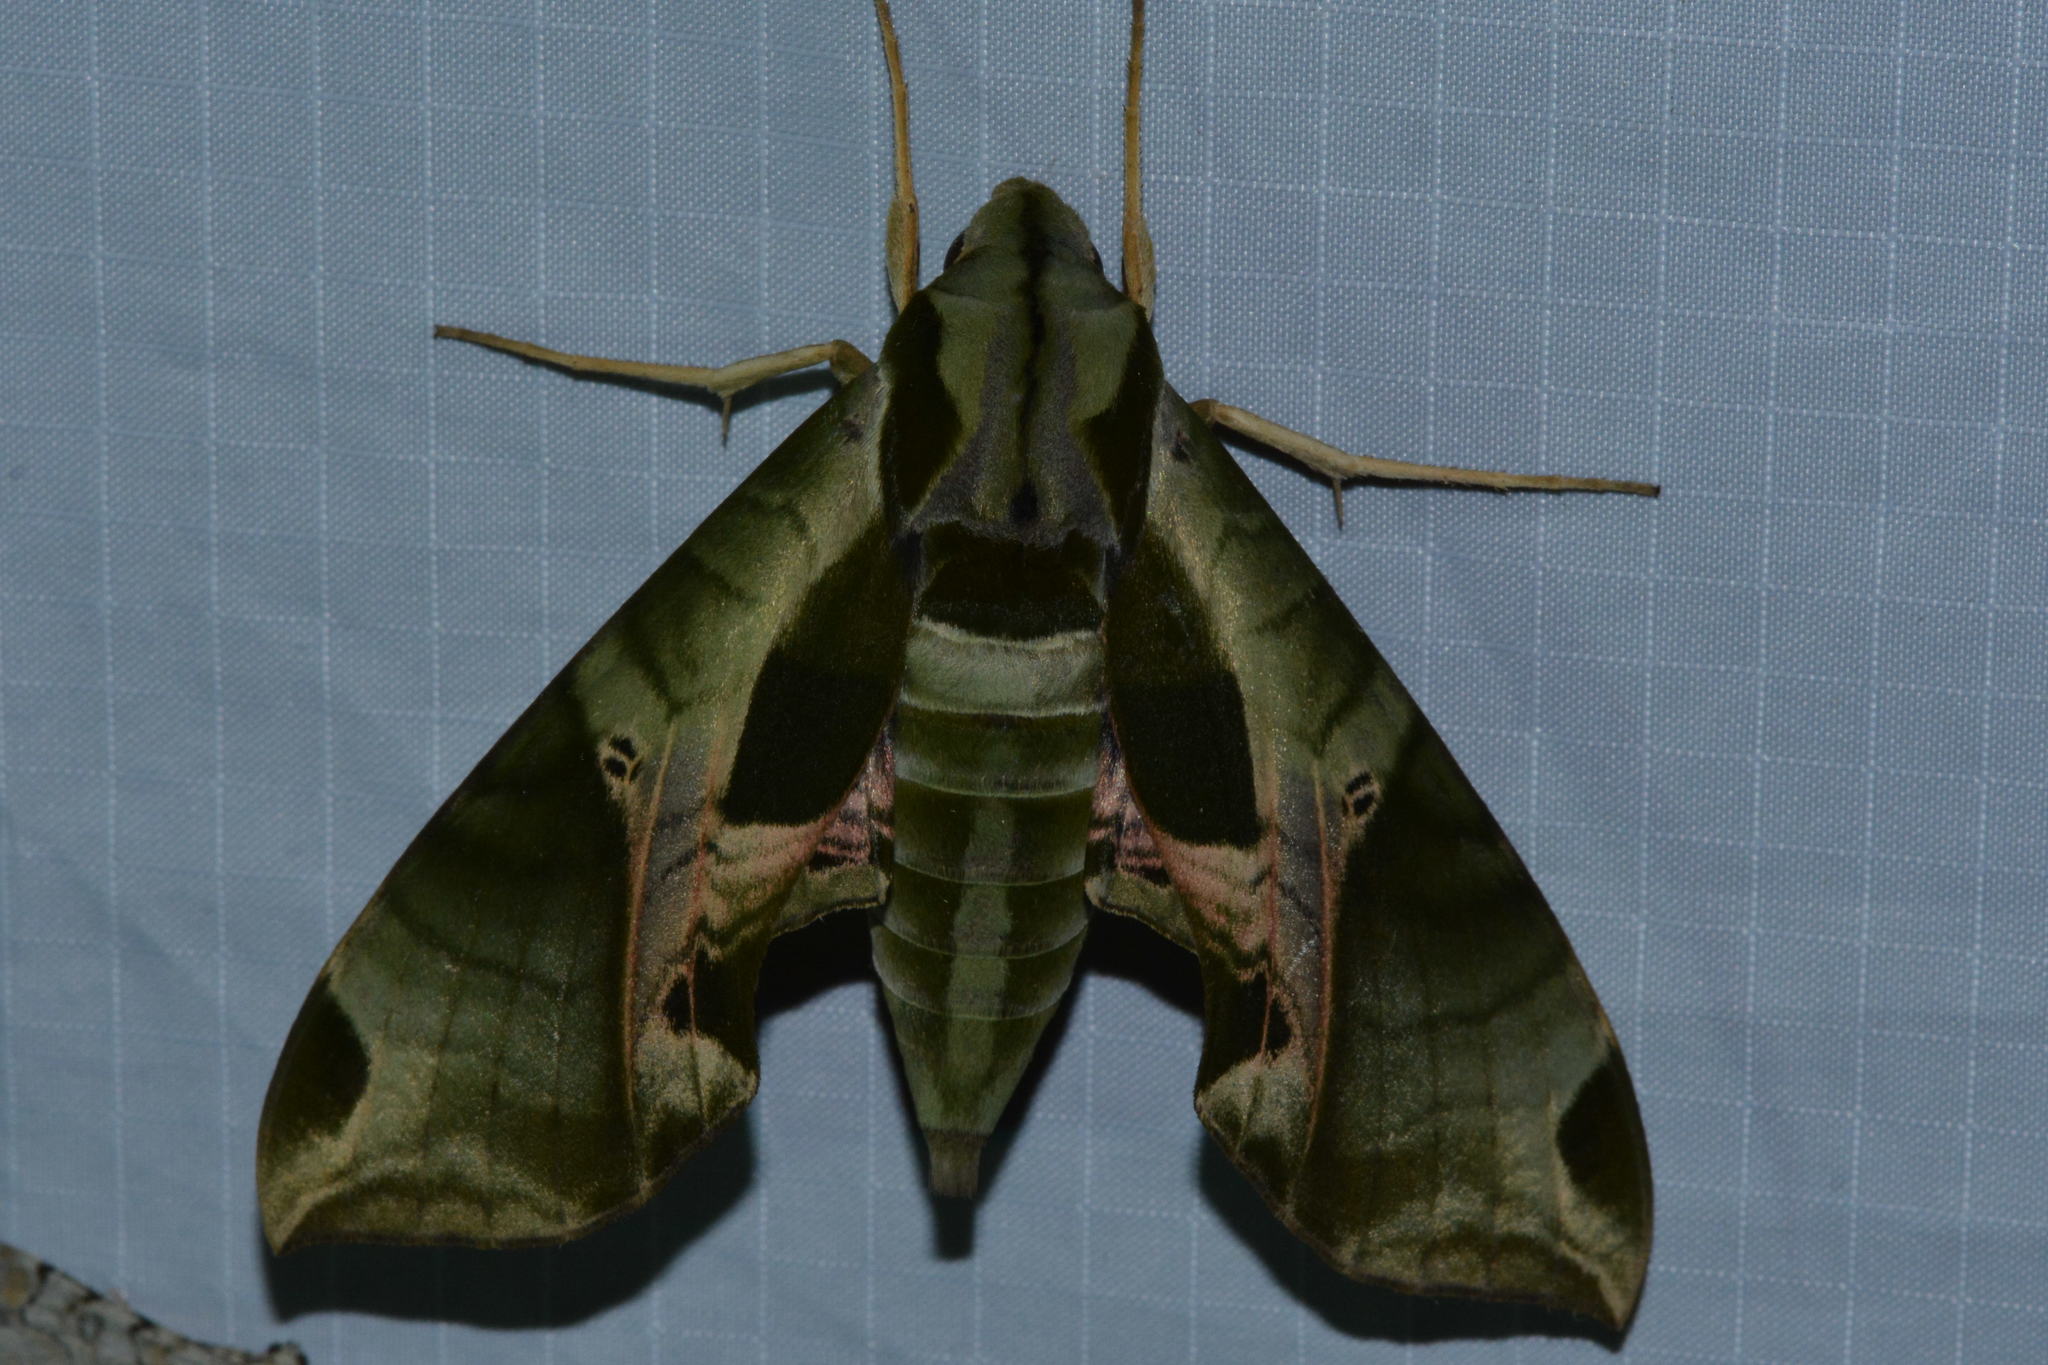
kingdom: Animalia
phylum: Arthropoda
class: Insecta
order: Lepidoptera
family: Sphingidae
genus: Eumorpha
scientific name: Eumorpha pandorus
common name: Pandora sphinx
